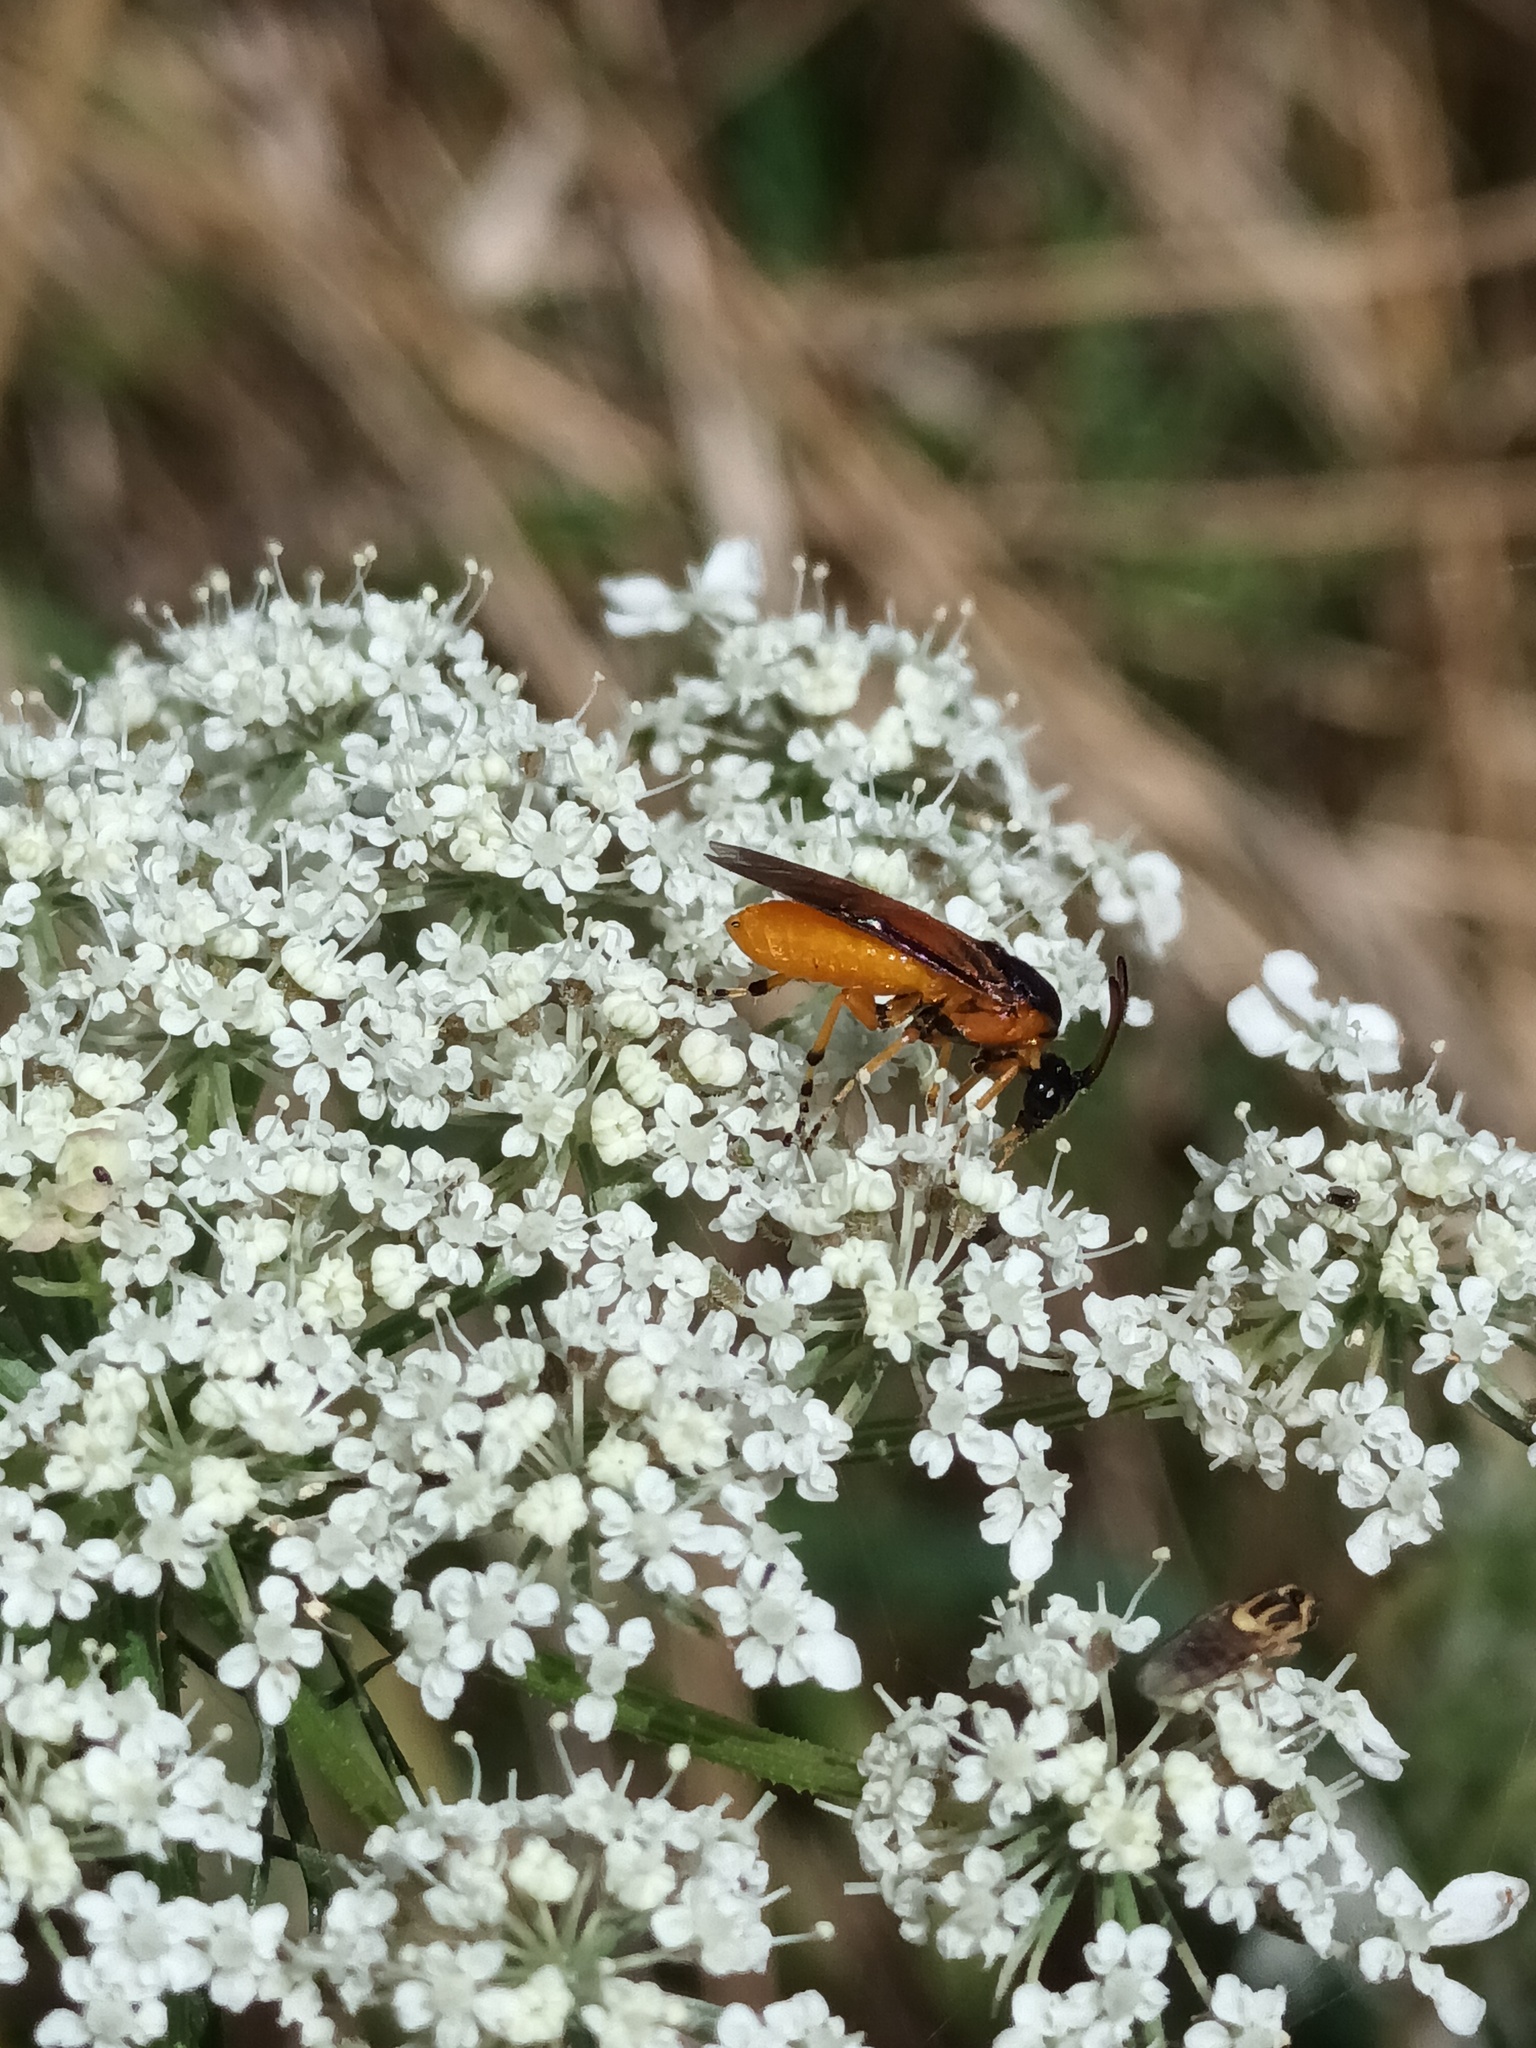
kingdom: Animalia
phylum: Arthropoda
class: Insecta
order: Hymenoptera
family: Argidae
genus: Arge
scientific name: Arge ochropus
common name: Argid sawfly
